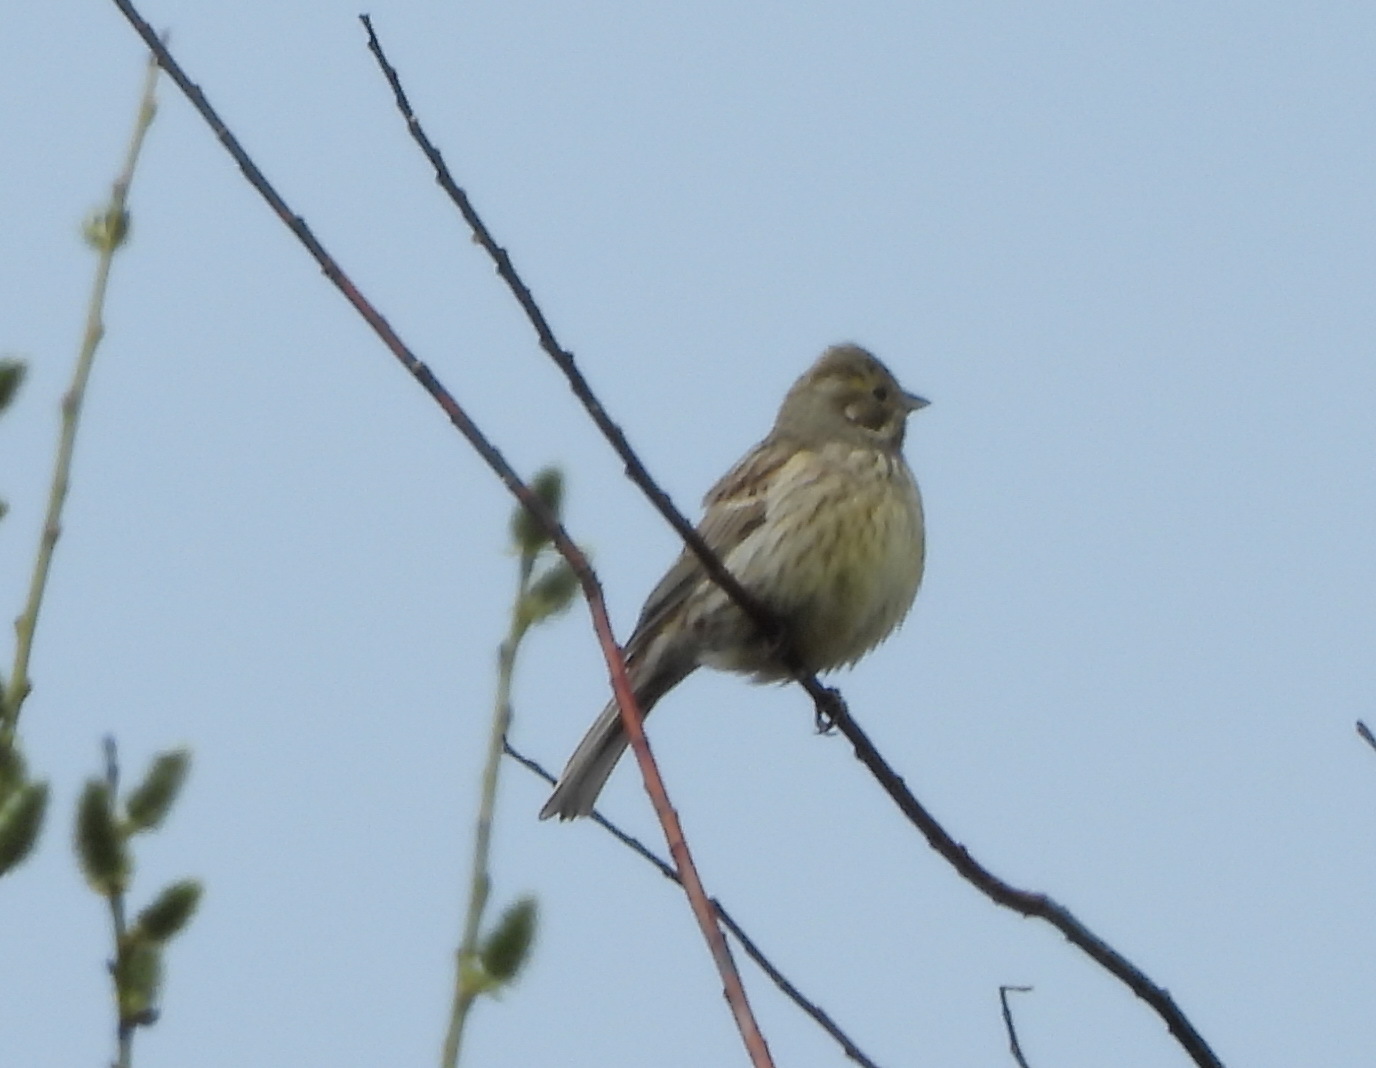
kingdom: Animalia
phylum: Chordata
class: Aves
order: Passeriformes
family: Emberizidae
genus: Emberiza
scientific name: Emberiza citrinella
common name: Yellowhammer
